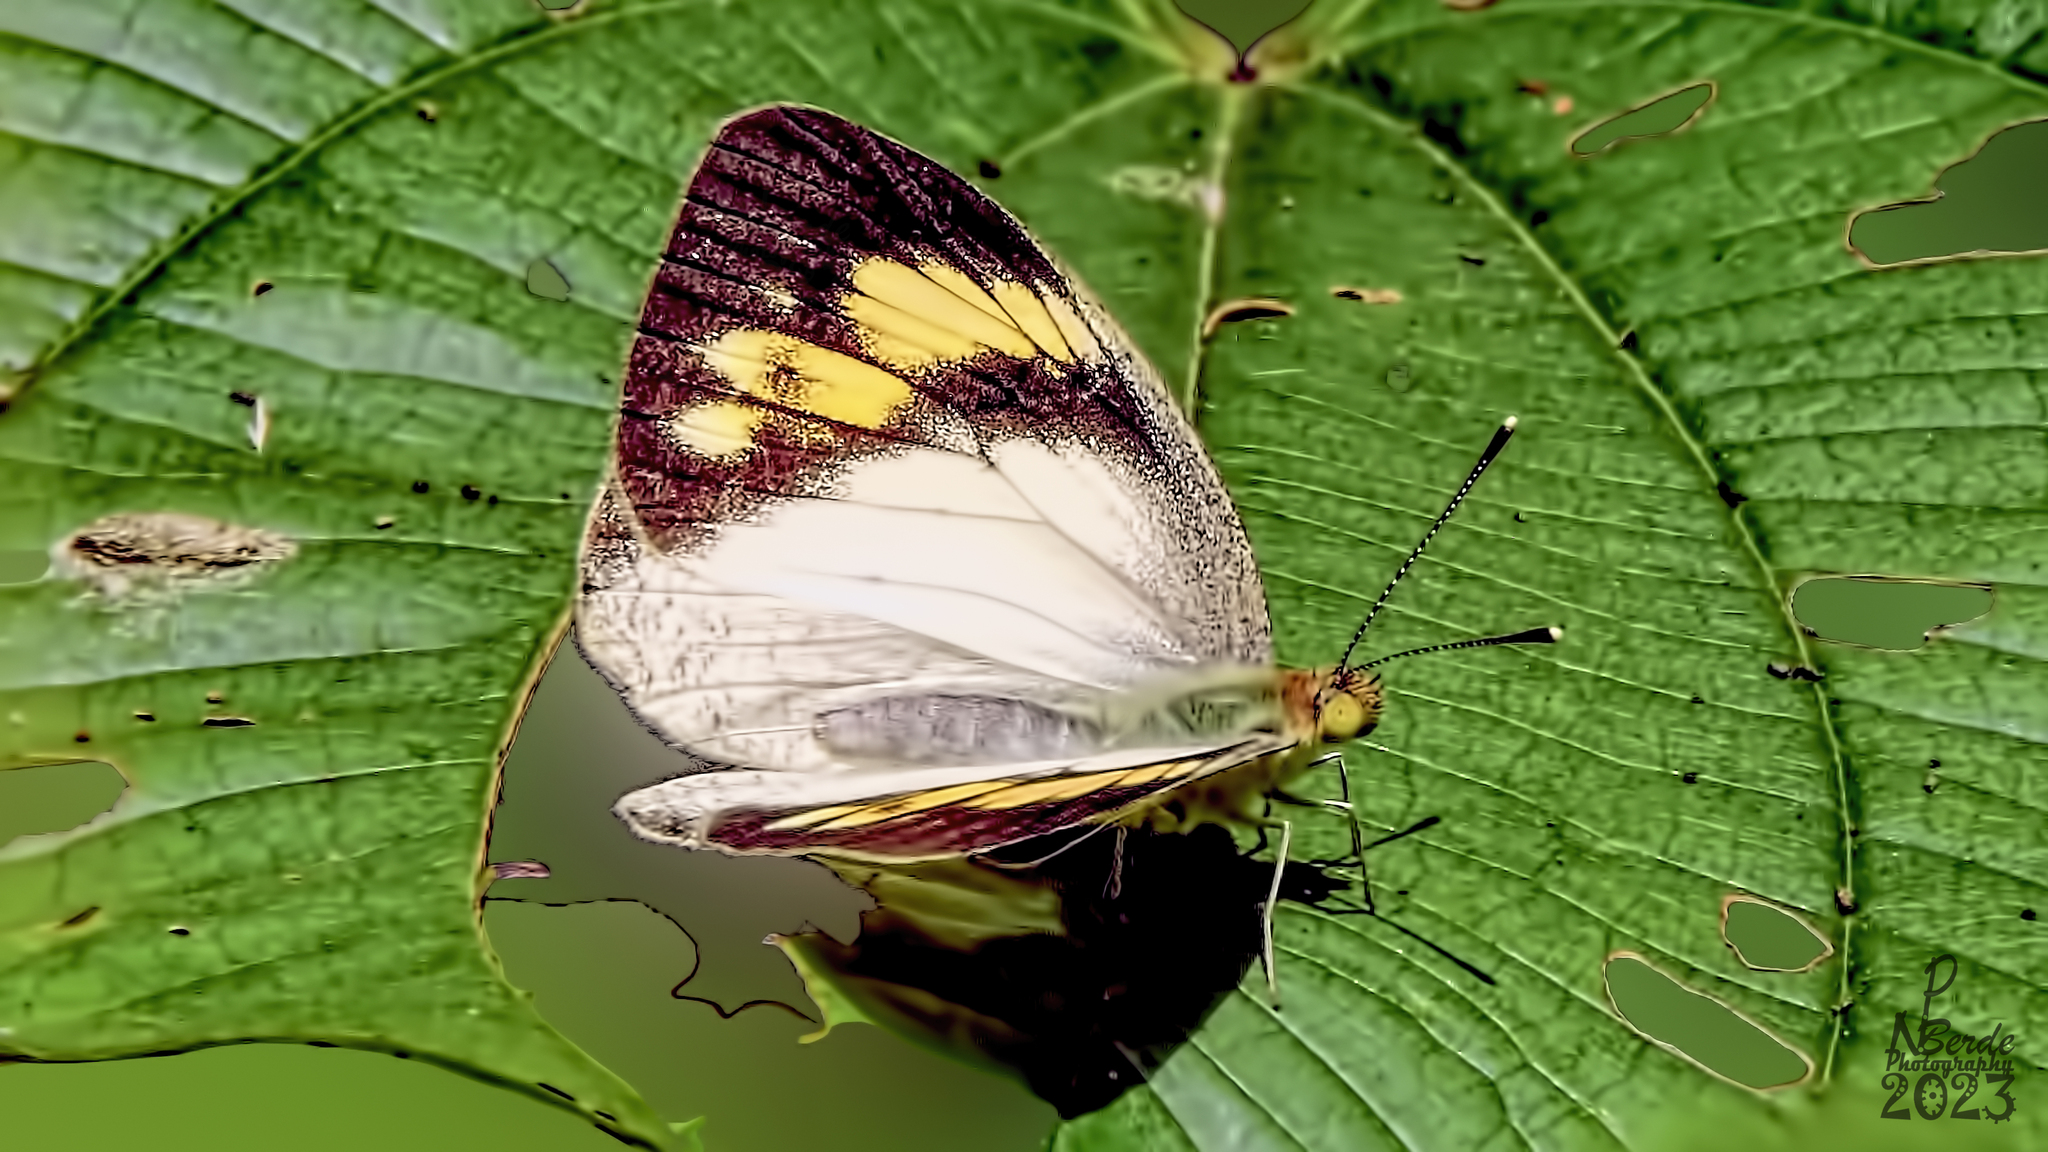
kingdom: Animalia
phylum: Arthropoda
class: Insecta
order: Lepidoptera
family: Pieridae
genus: Ixias
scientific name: Ixias pyrene
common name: Yellow orange tip
